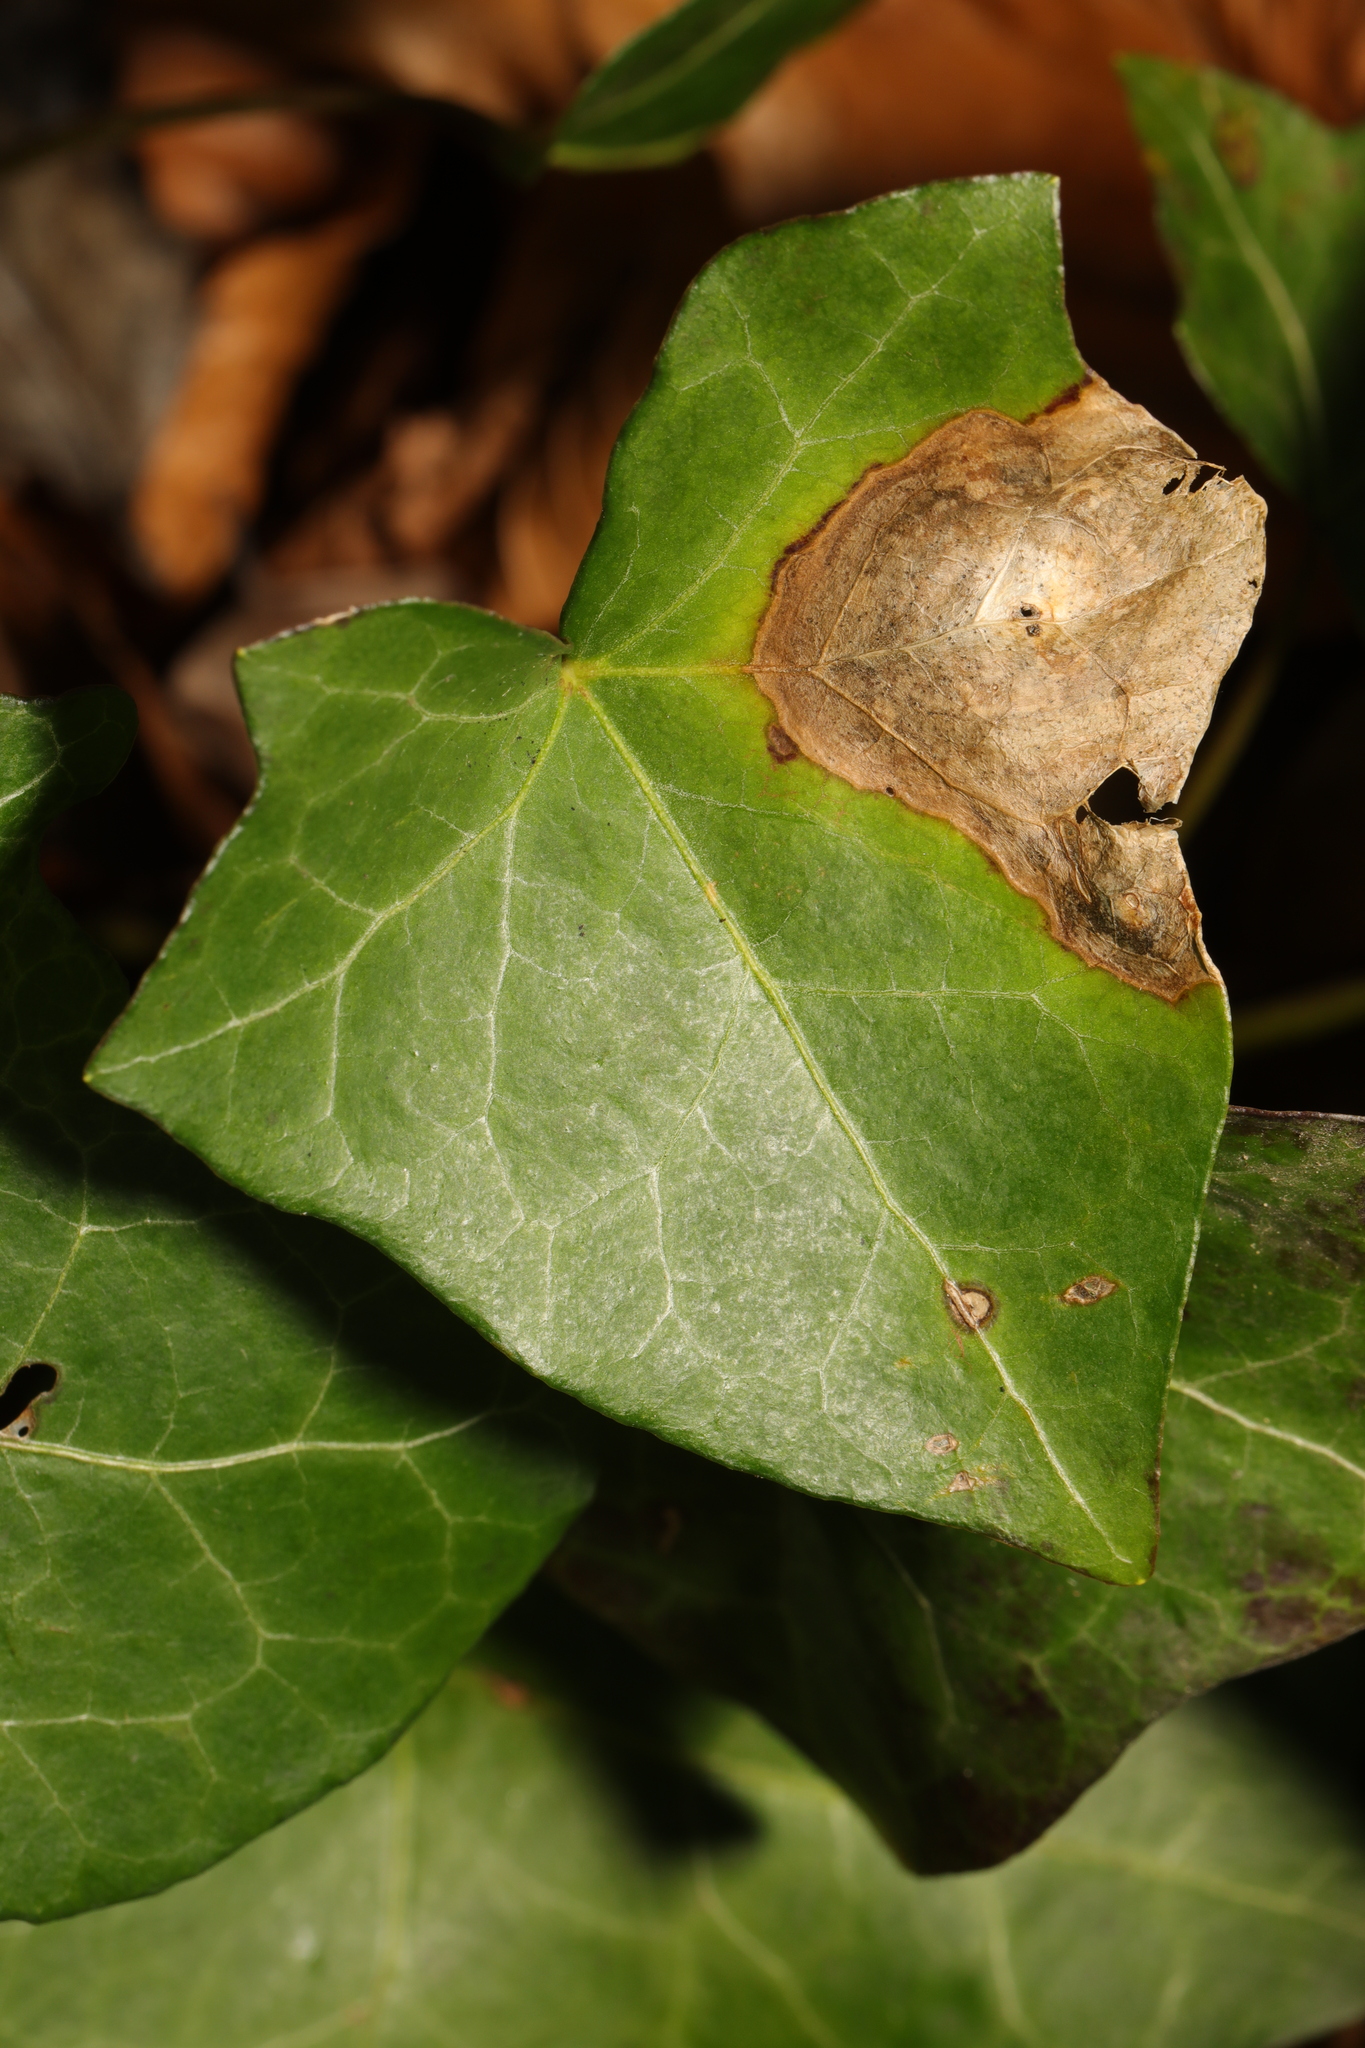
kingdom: Fungi
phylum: Ascomycota
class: Dothideomycetes
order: Pleosporales
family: Didymellaceae
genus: Boeremia
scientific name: Boeremia hedericola
